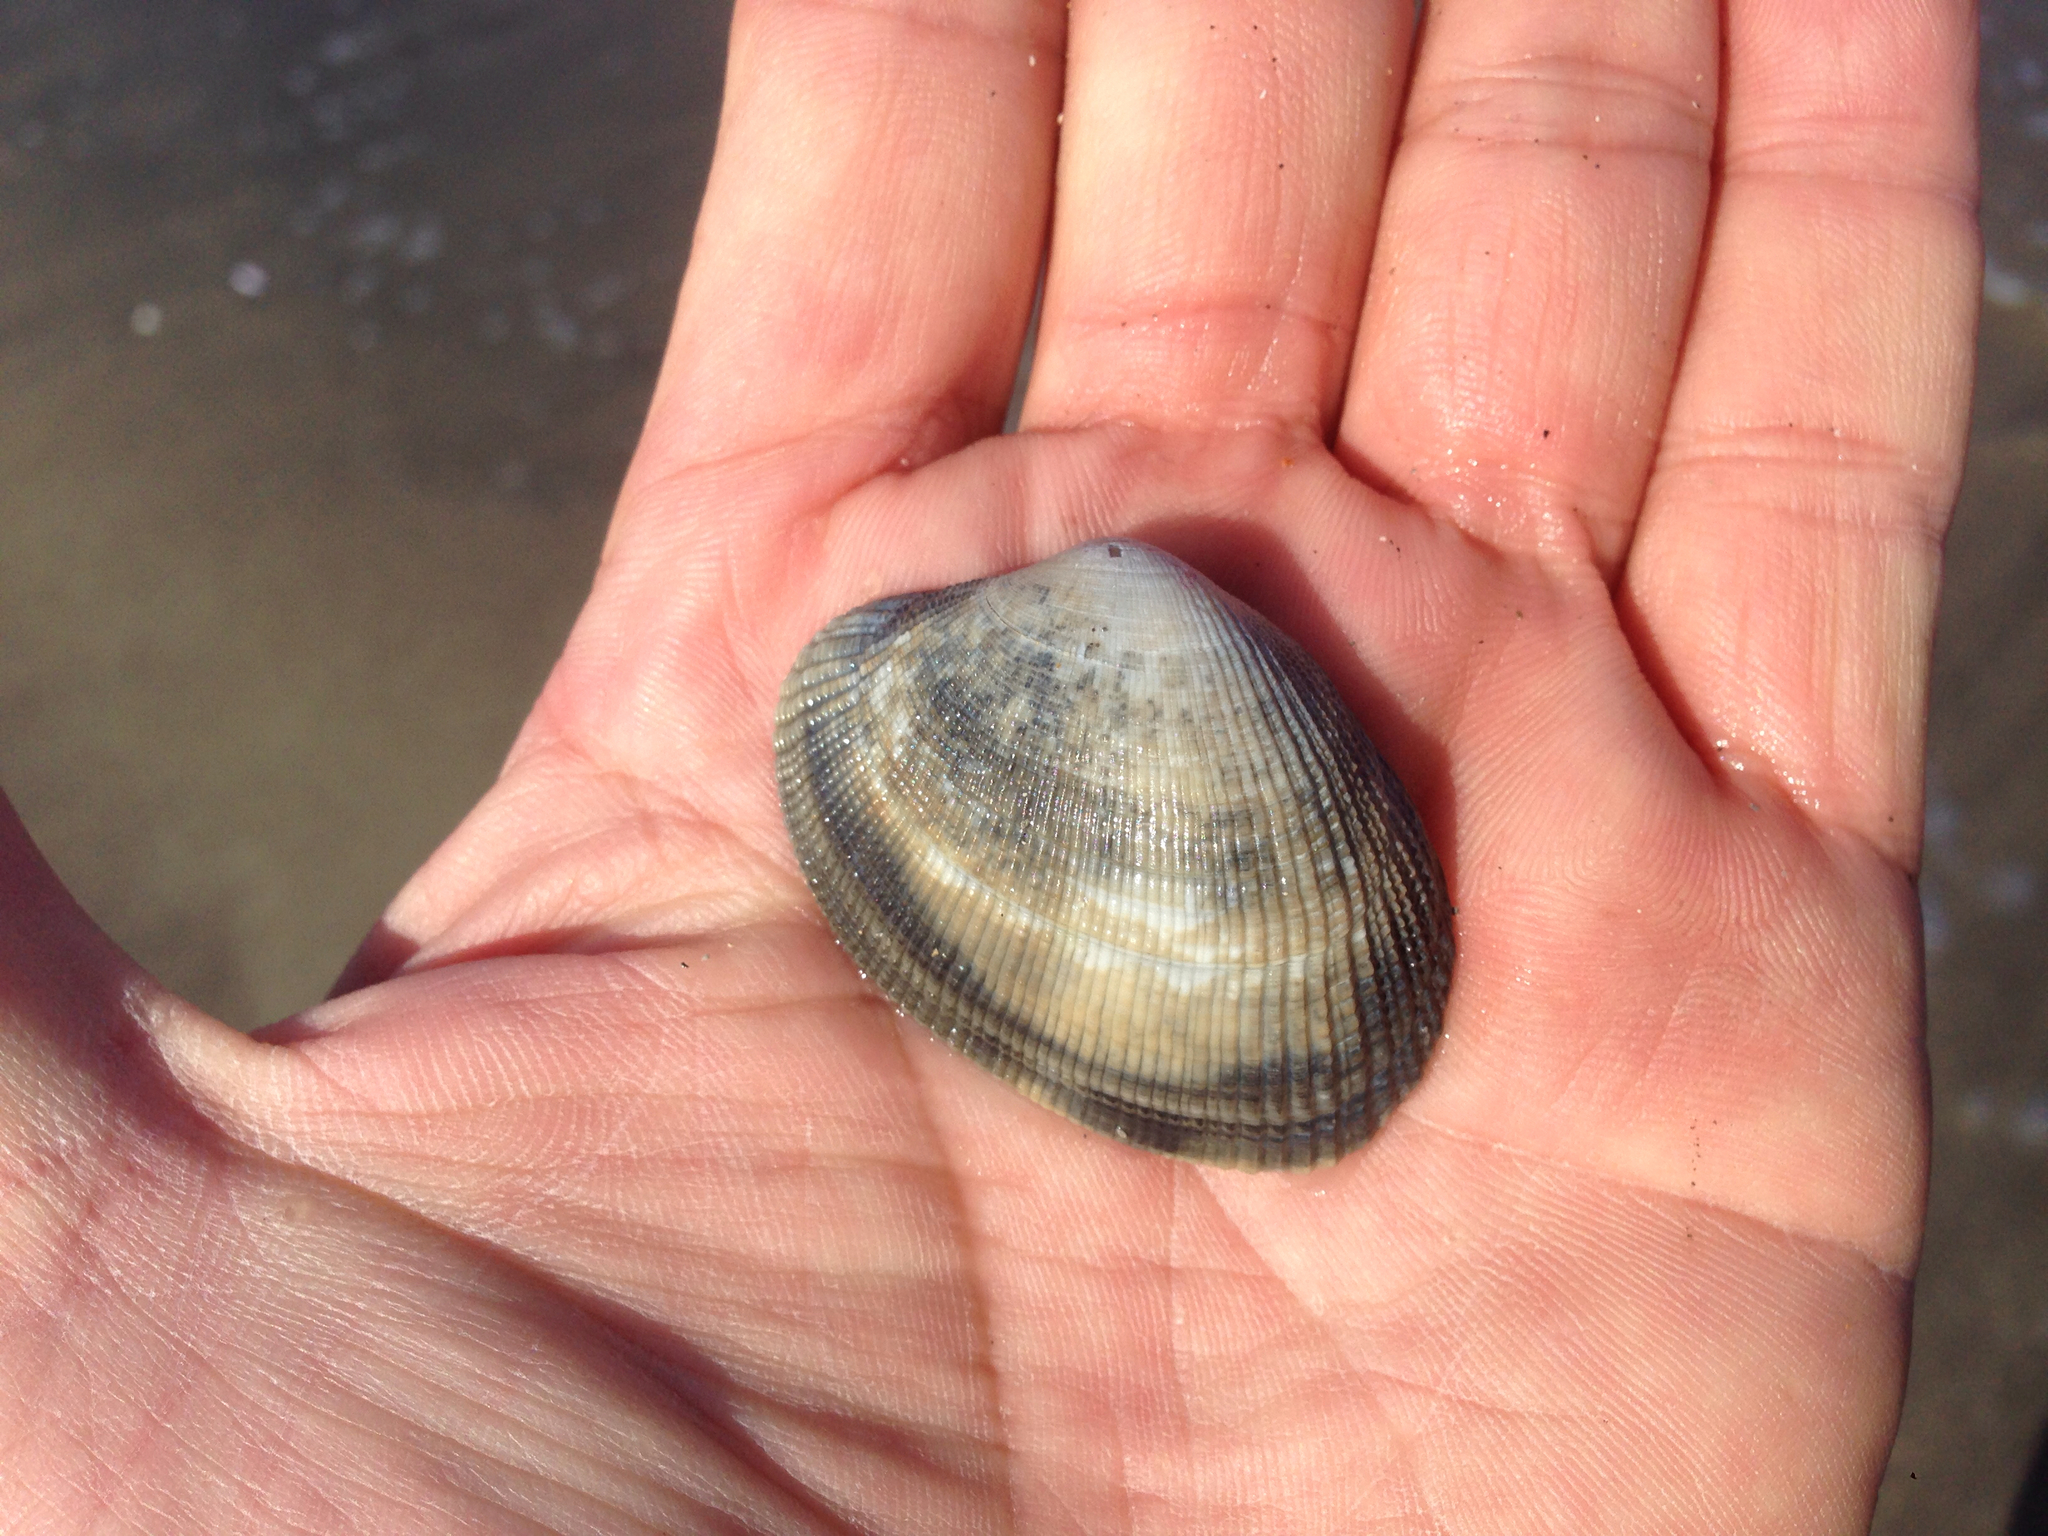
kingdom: Animalia
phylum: Mollusca
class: Bivalvia
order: Venerida
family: Veneridae
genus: Ruditapes
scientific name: Ruditapes philippinarum
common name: Manila clam
